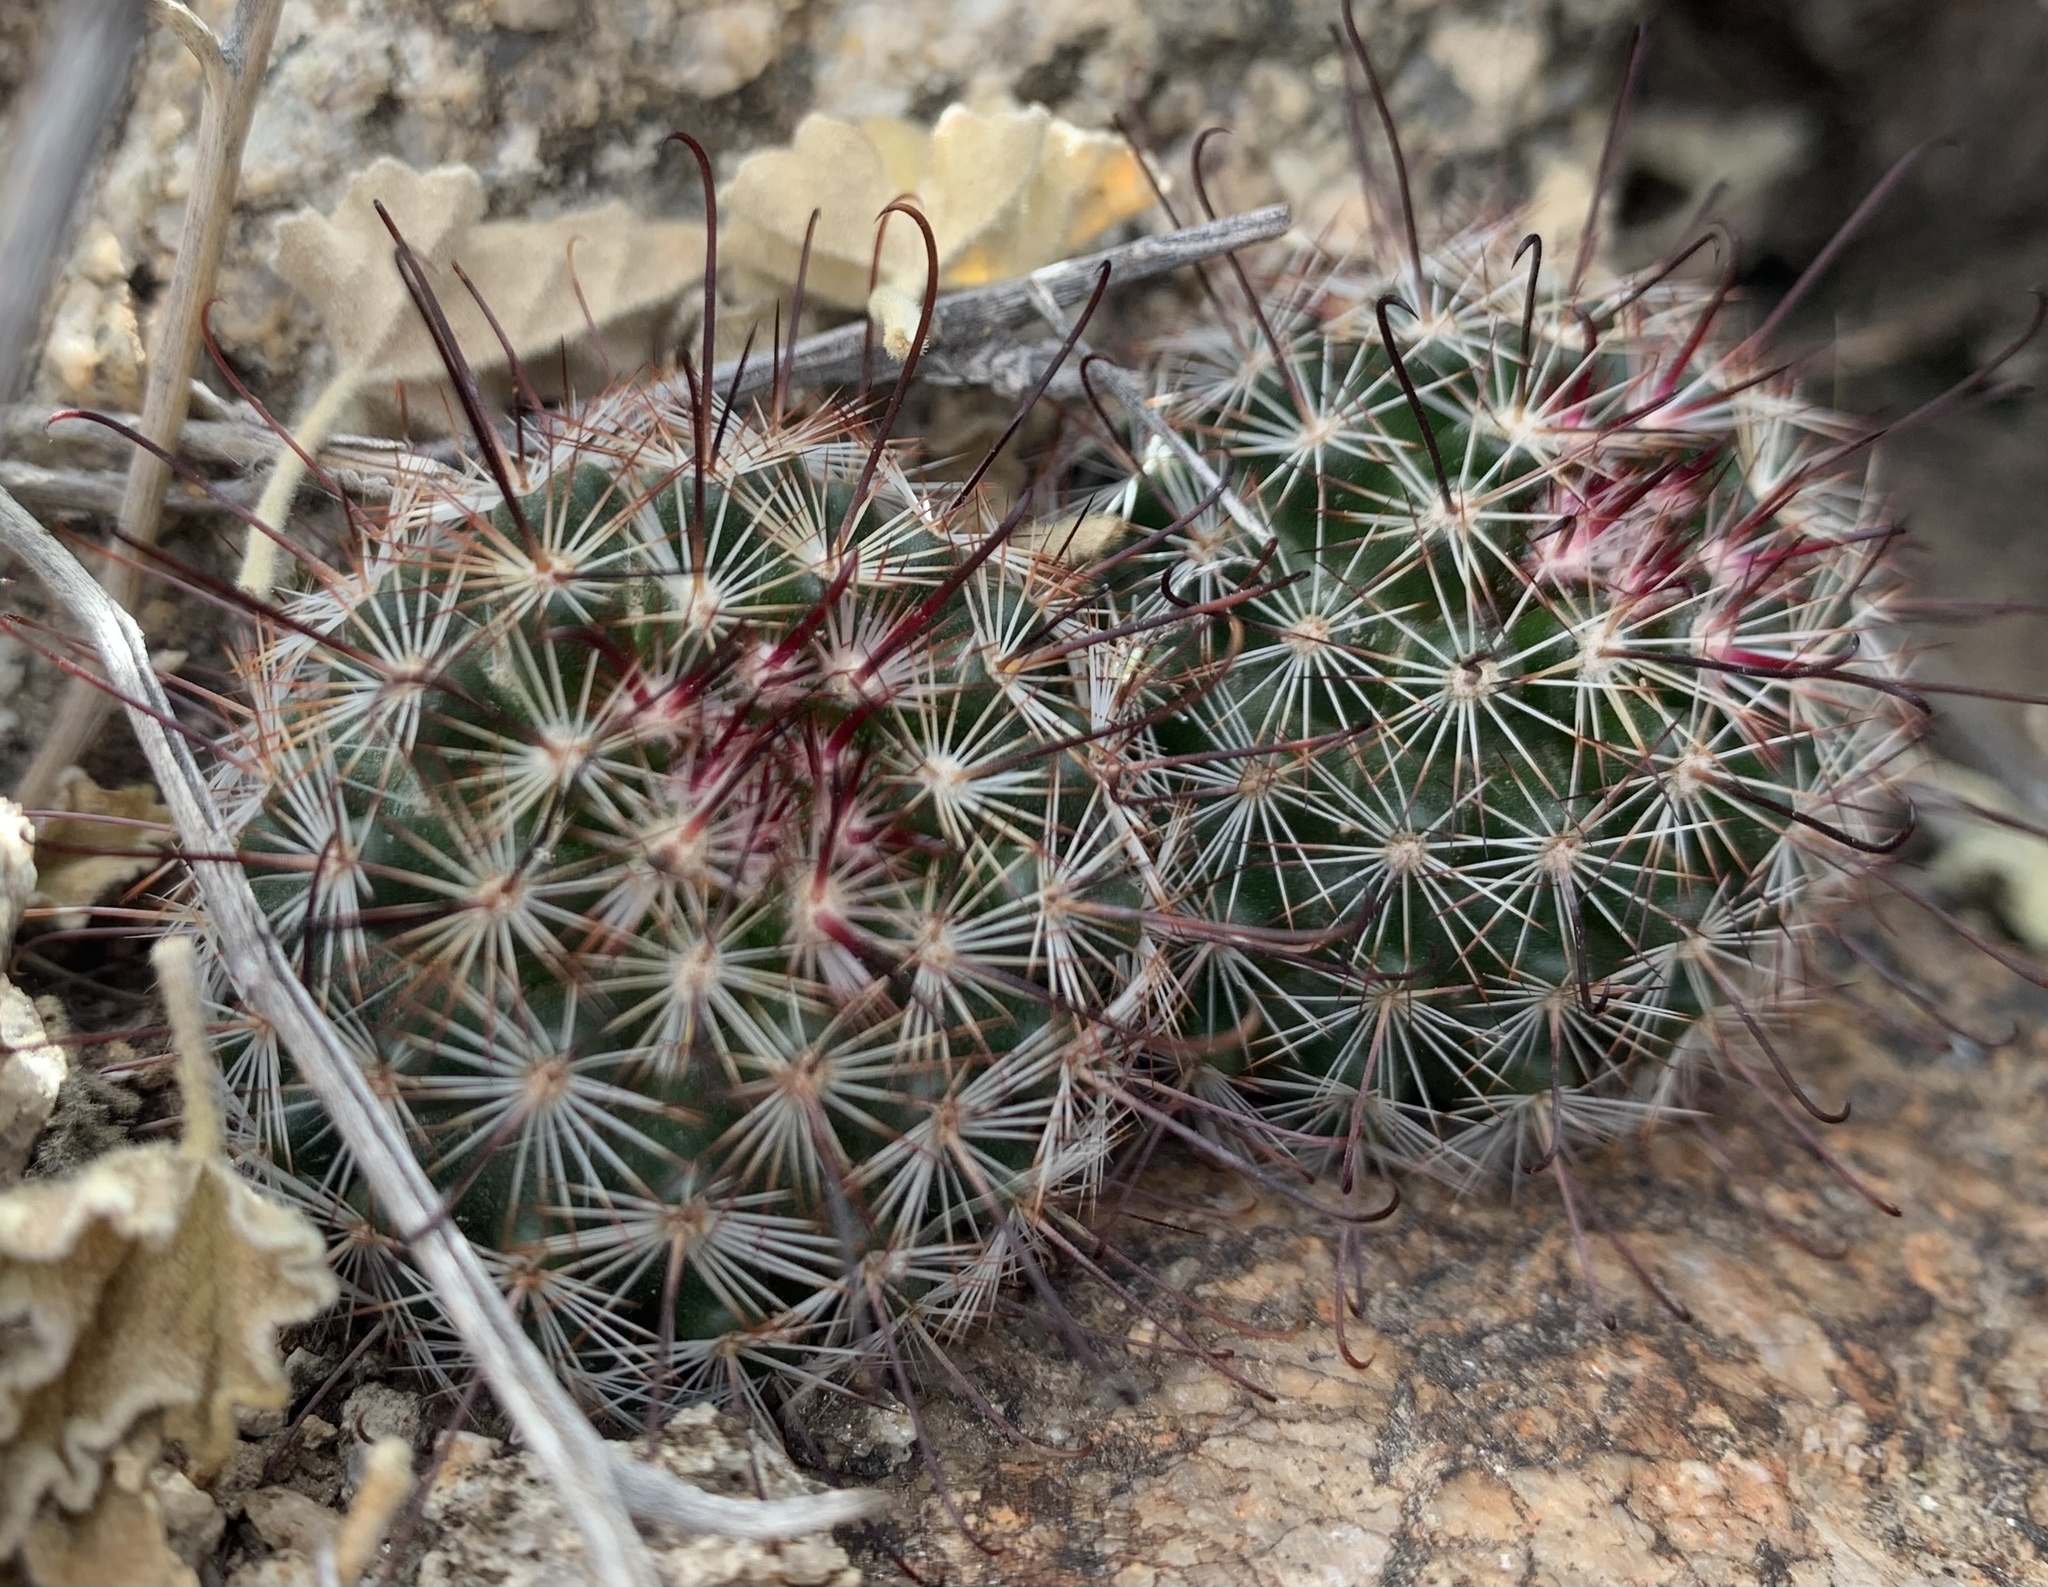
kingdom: Plantae
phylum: Tracheophyta
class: Magnoliopsida
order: Caryophyllales
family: Cactaceae
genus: Cochemiea
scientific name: Cochemiea grahamii
